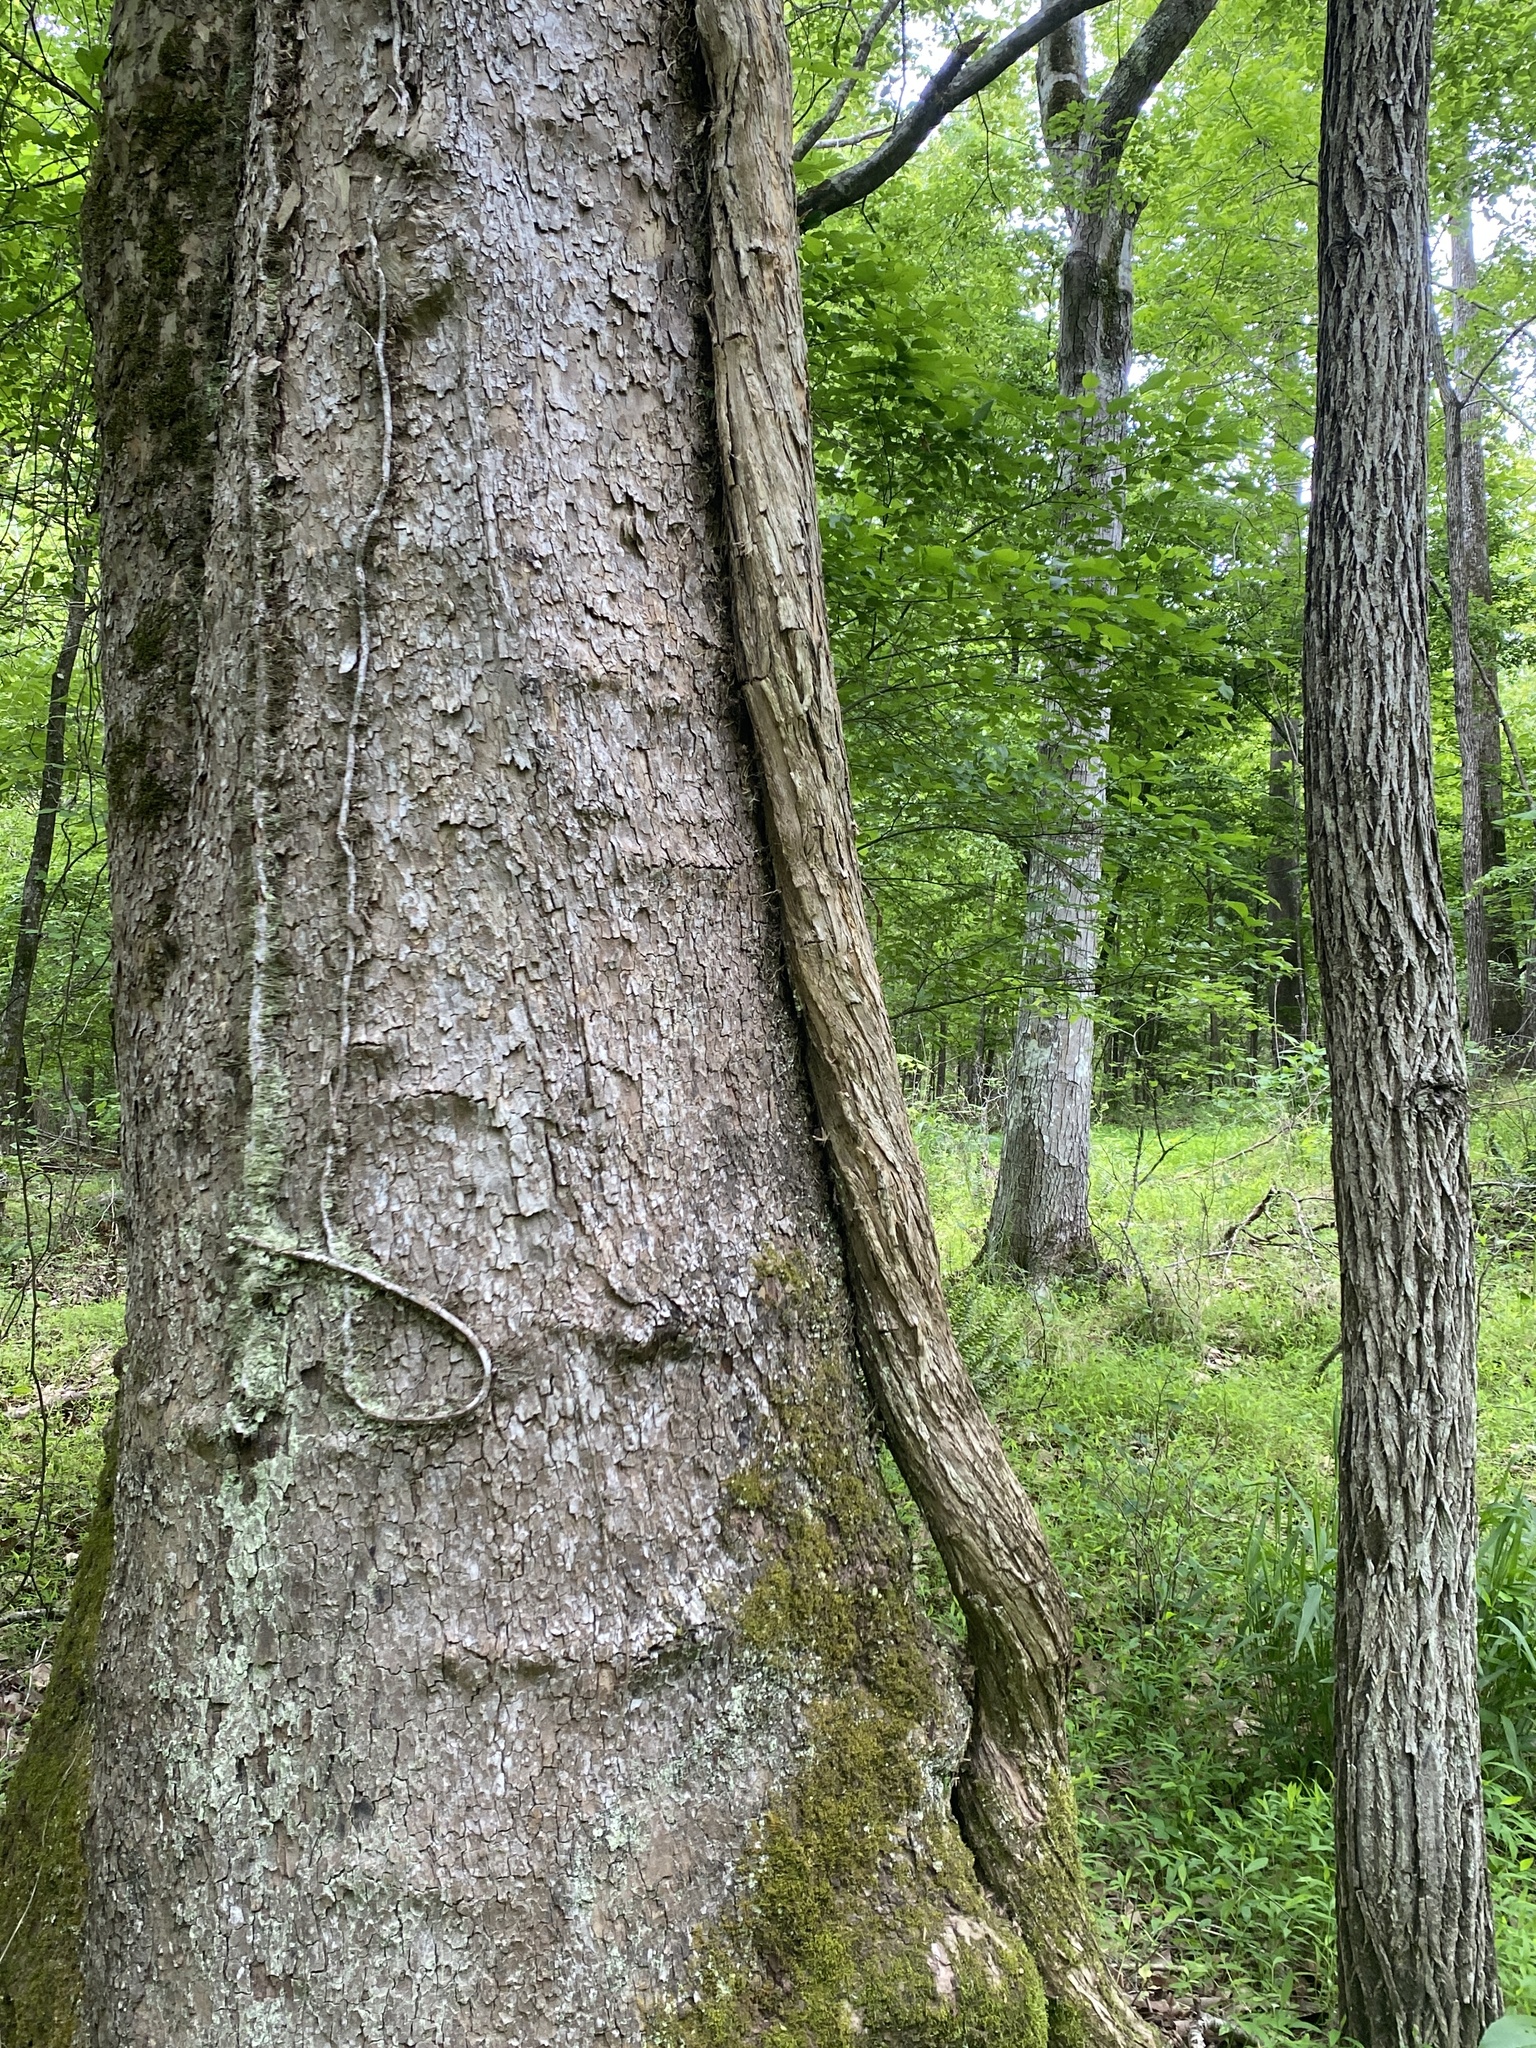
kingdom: Plantae
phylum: Tracheophyta
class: Magnoliopsida
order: Lamiales
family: Bignoniaceae
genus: Campsis
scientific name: Campsis radicans
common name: Trumpet-creeper
